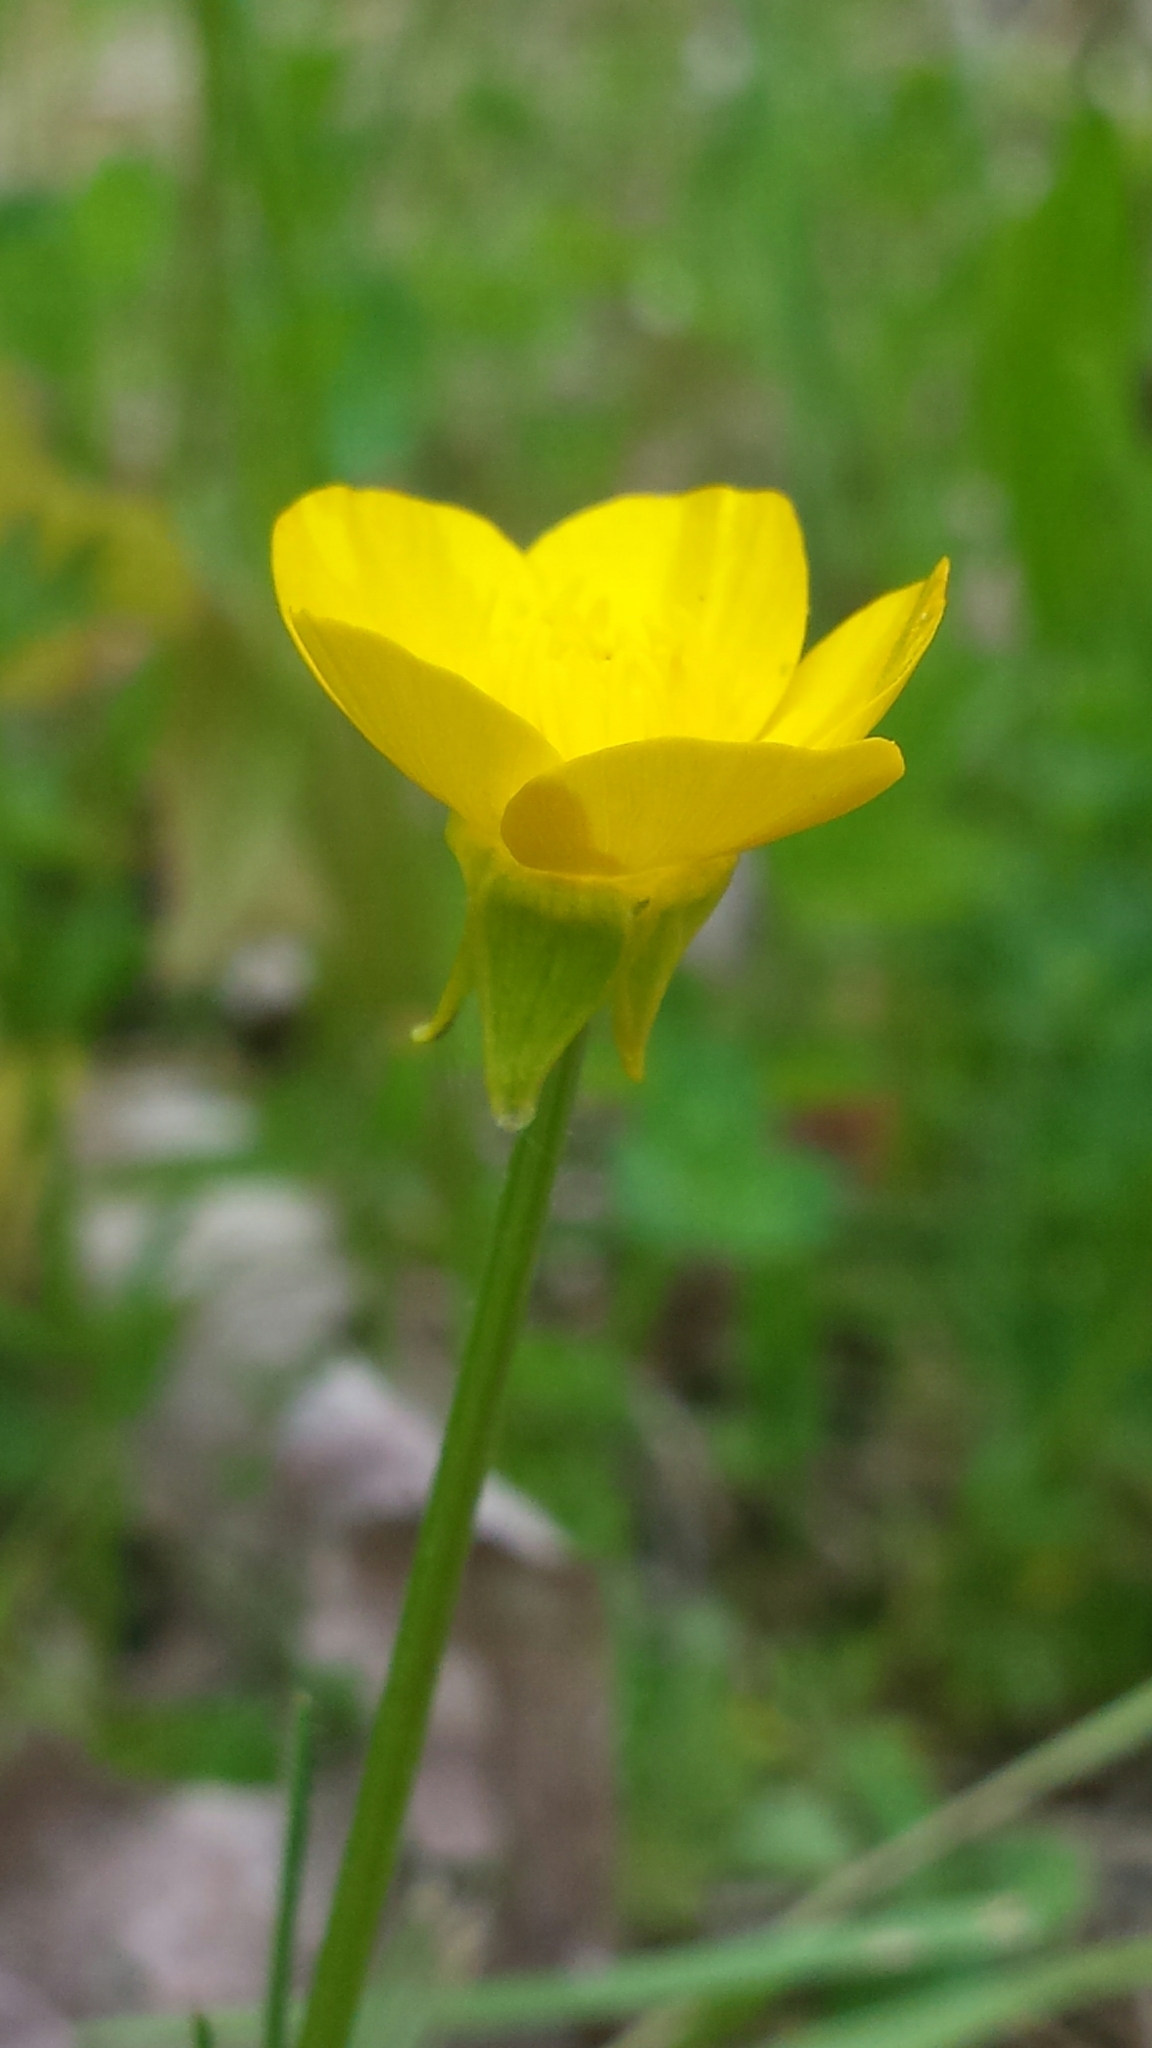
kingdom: Plantae
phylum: Tracheophyta
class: Magnoliopsida
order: Ranunculales
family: Ranunculaceae
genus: Ranunculus
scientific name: Ranunculus bulbosus
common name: Bulbous buttercup
